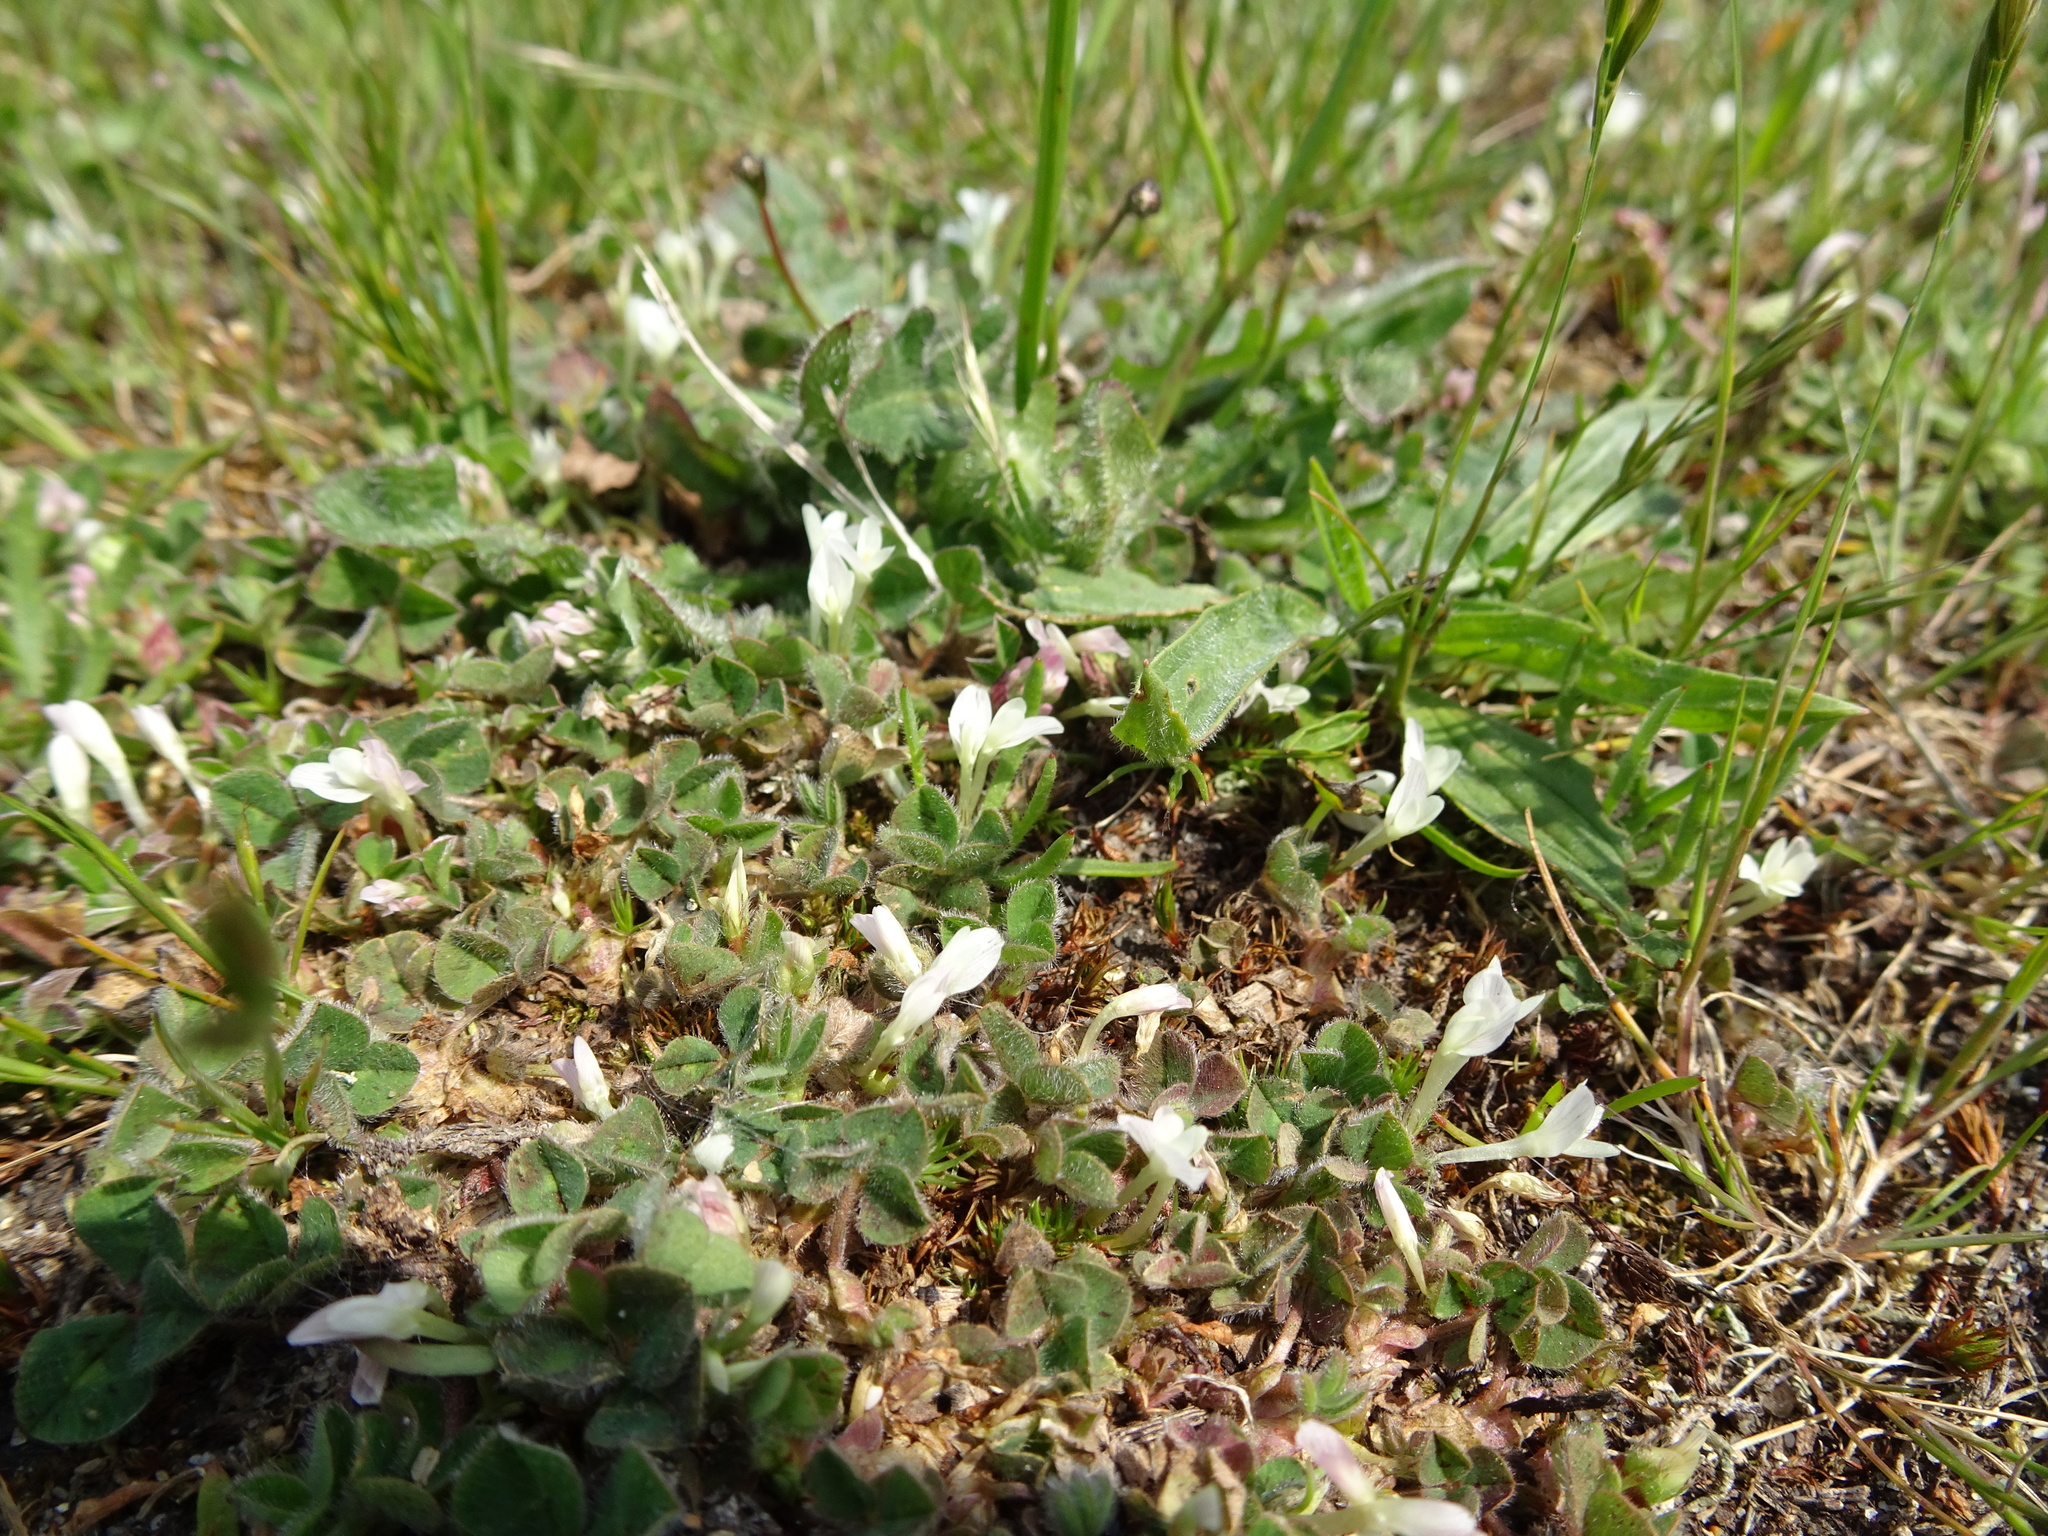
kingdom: Plantae
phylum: Tracheophyta
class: Magnoliopsida
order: Fabales
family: Fabaceae
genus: Trifolium
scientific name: Trifolium subterraneum
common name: Subterranean clover
